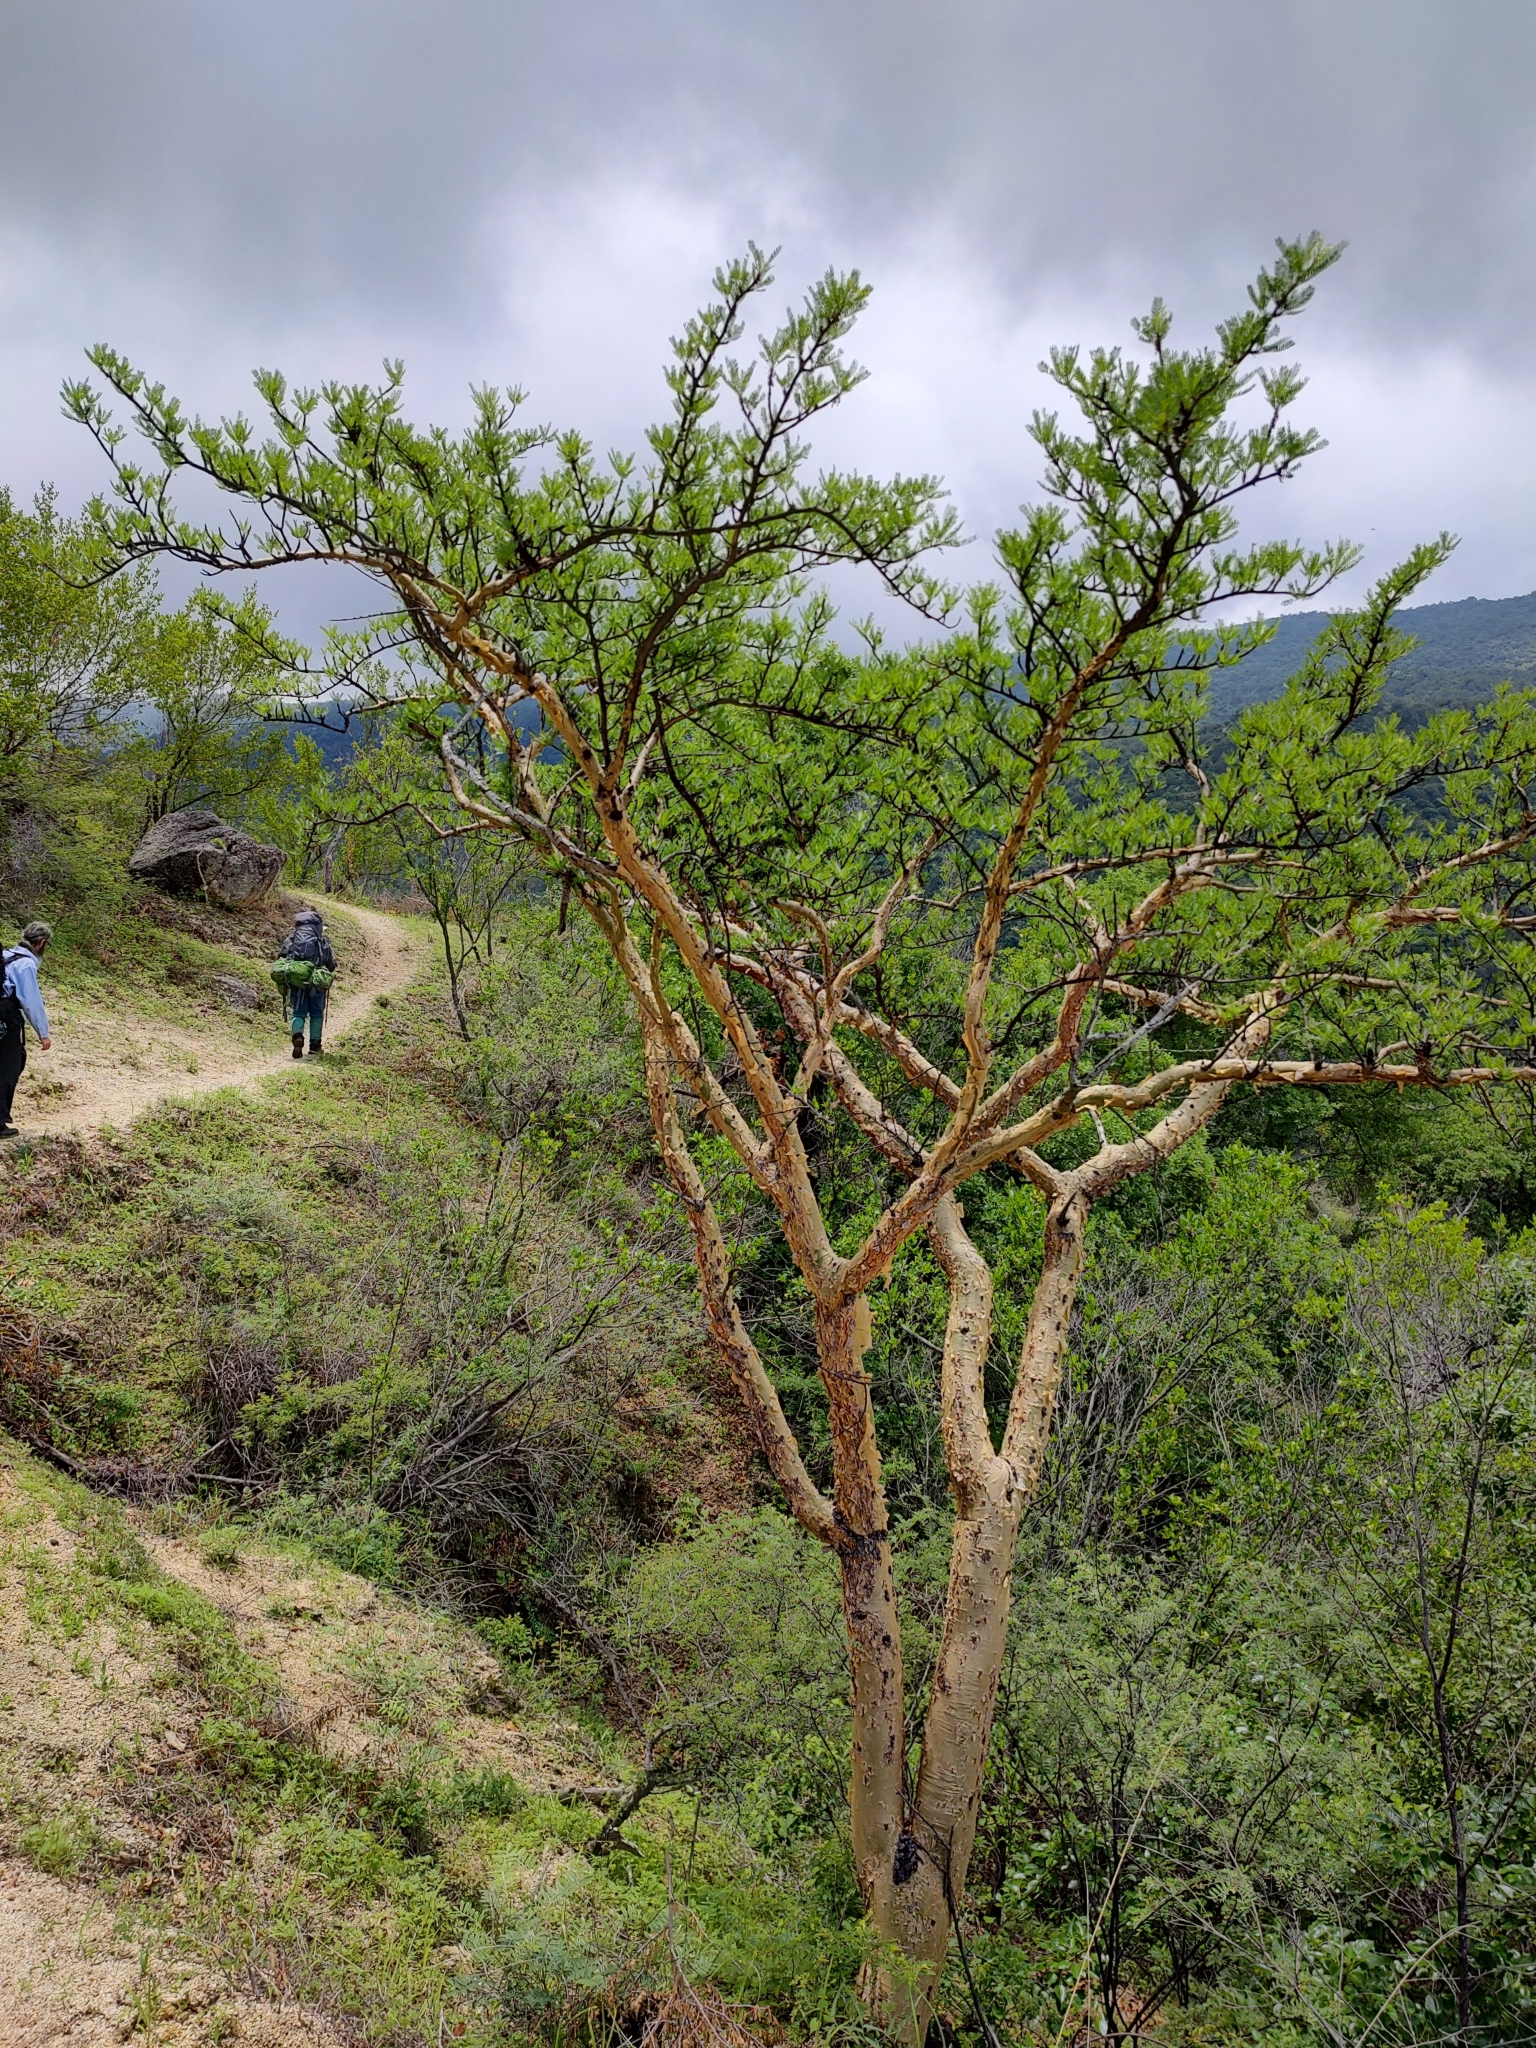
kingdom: Plantae
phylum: Tracheophyta
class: Magnoliopsida
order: Sapindales
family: Burseraceae
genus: Bursera
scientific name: Bursera microphylla
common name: Elephant tree
